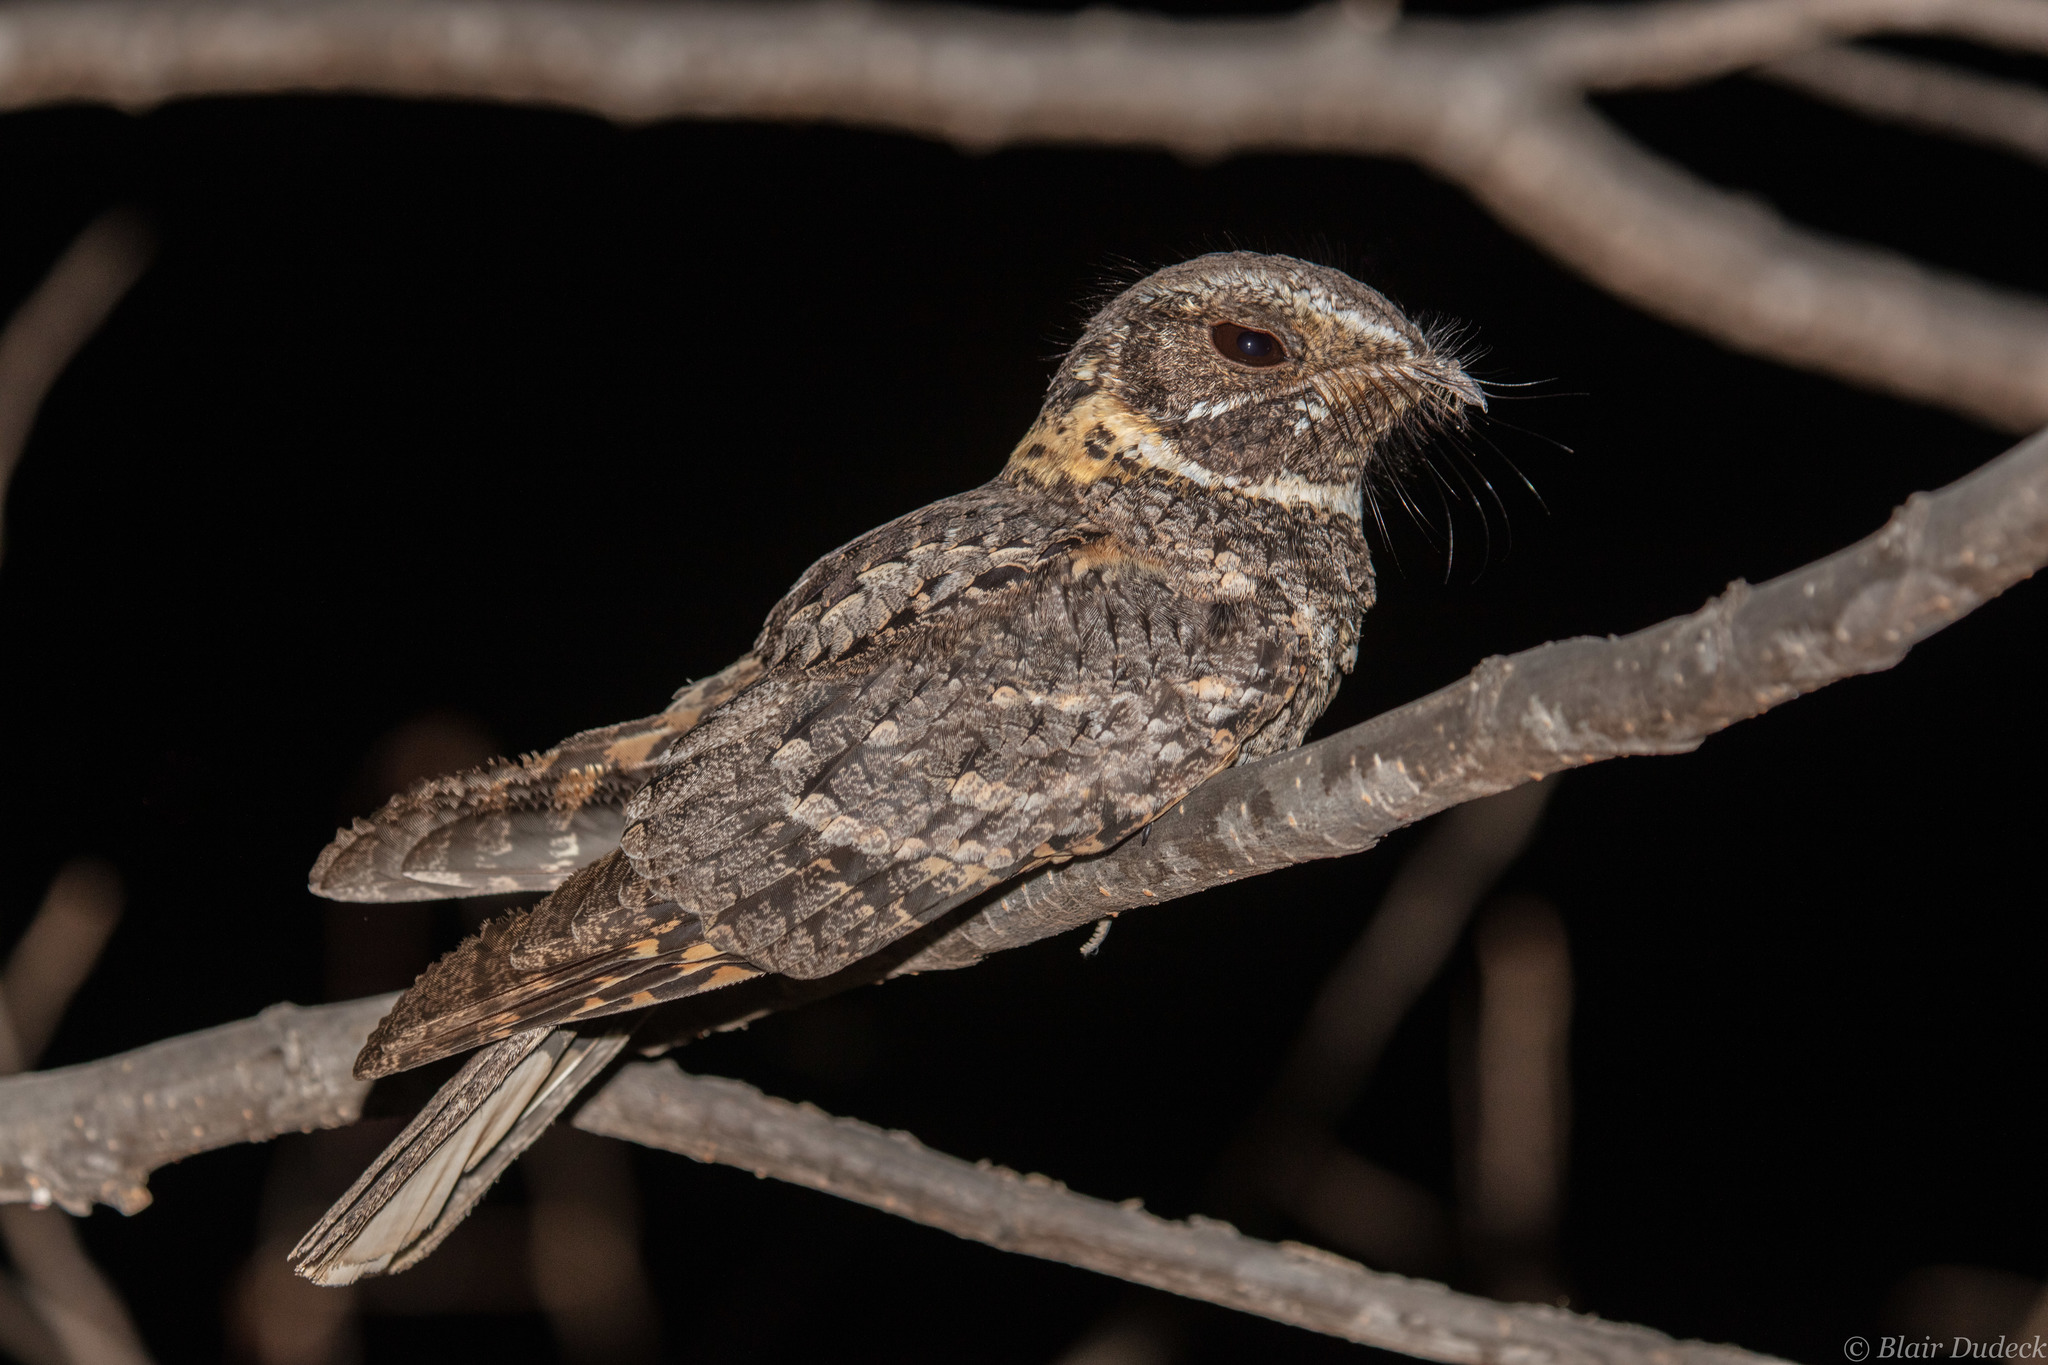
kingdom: Animalia
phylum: Chordata
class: Aves
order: Caprimulgiformes
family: Caprimulgidae
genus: Antrostomus
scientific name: Antrostomus ridgwayi
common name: Buff-collared nightjar
